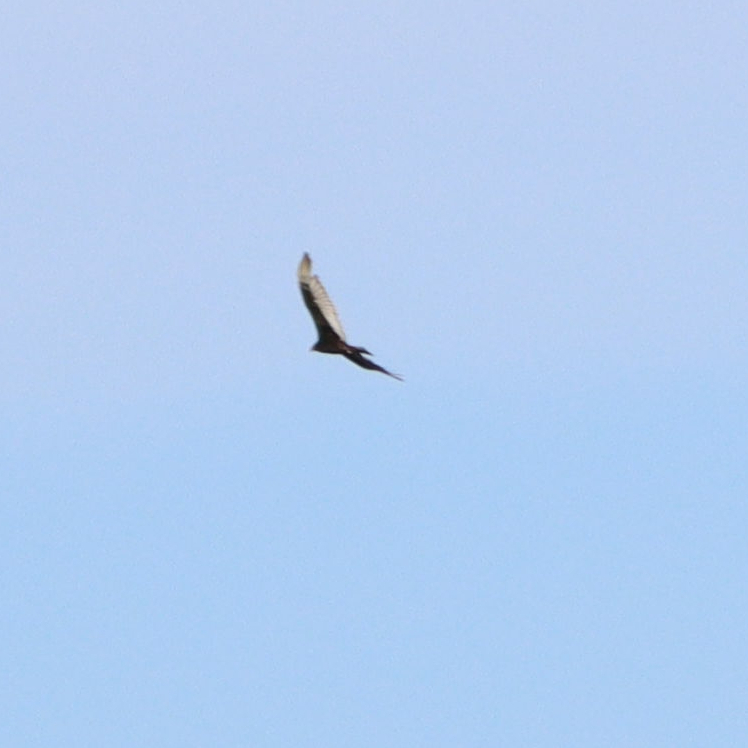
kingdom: Animalia
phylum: Chordata
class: Aves
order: Accipitriformes
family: Cathartidae
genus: Cathartes
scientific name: Cathartes aura
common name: Turkey vulture
